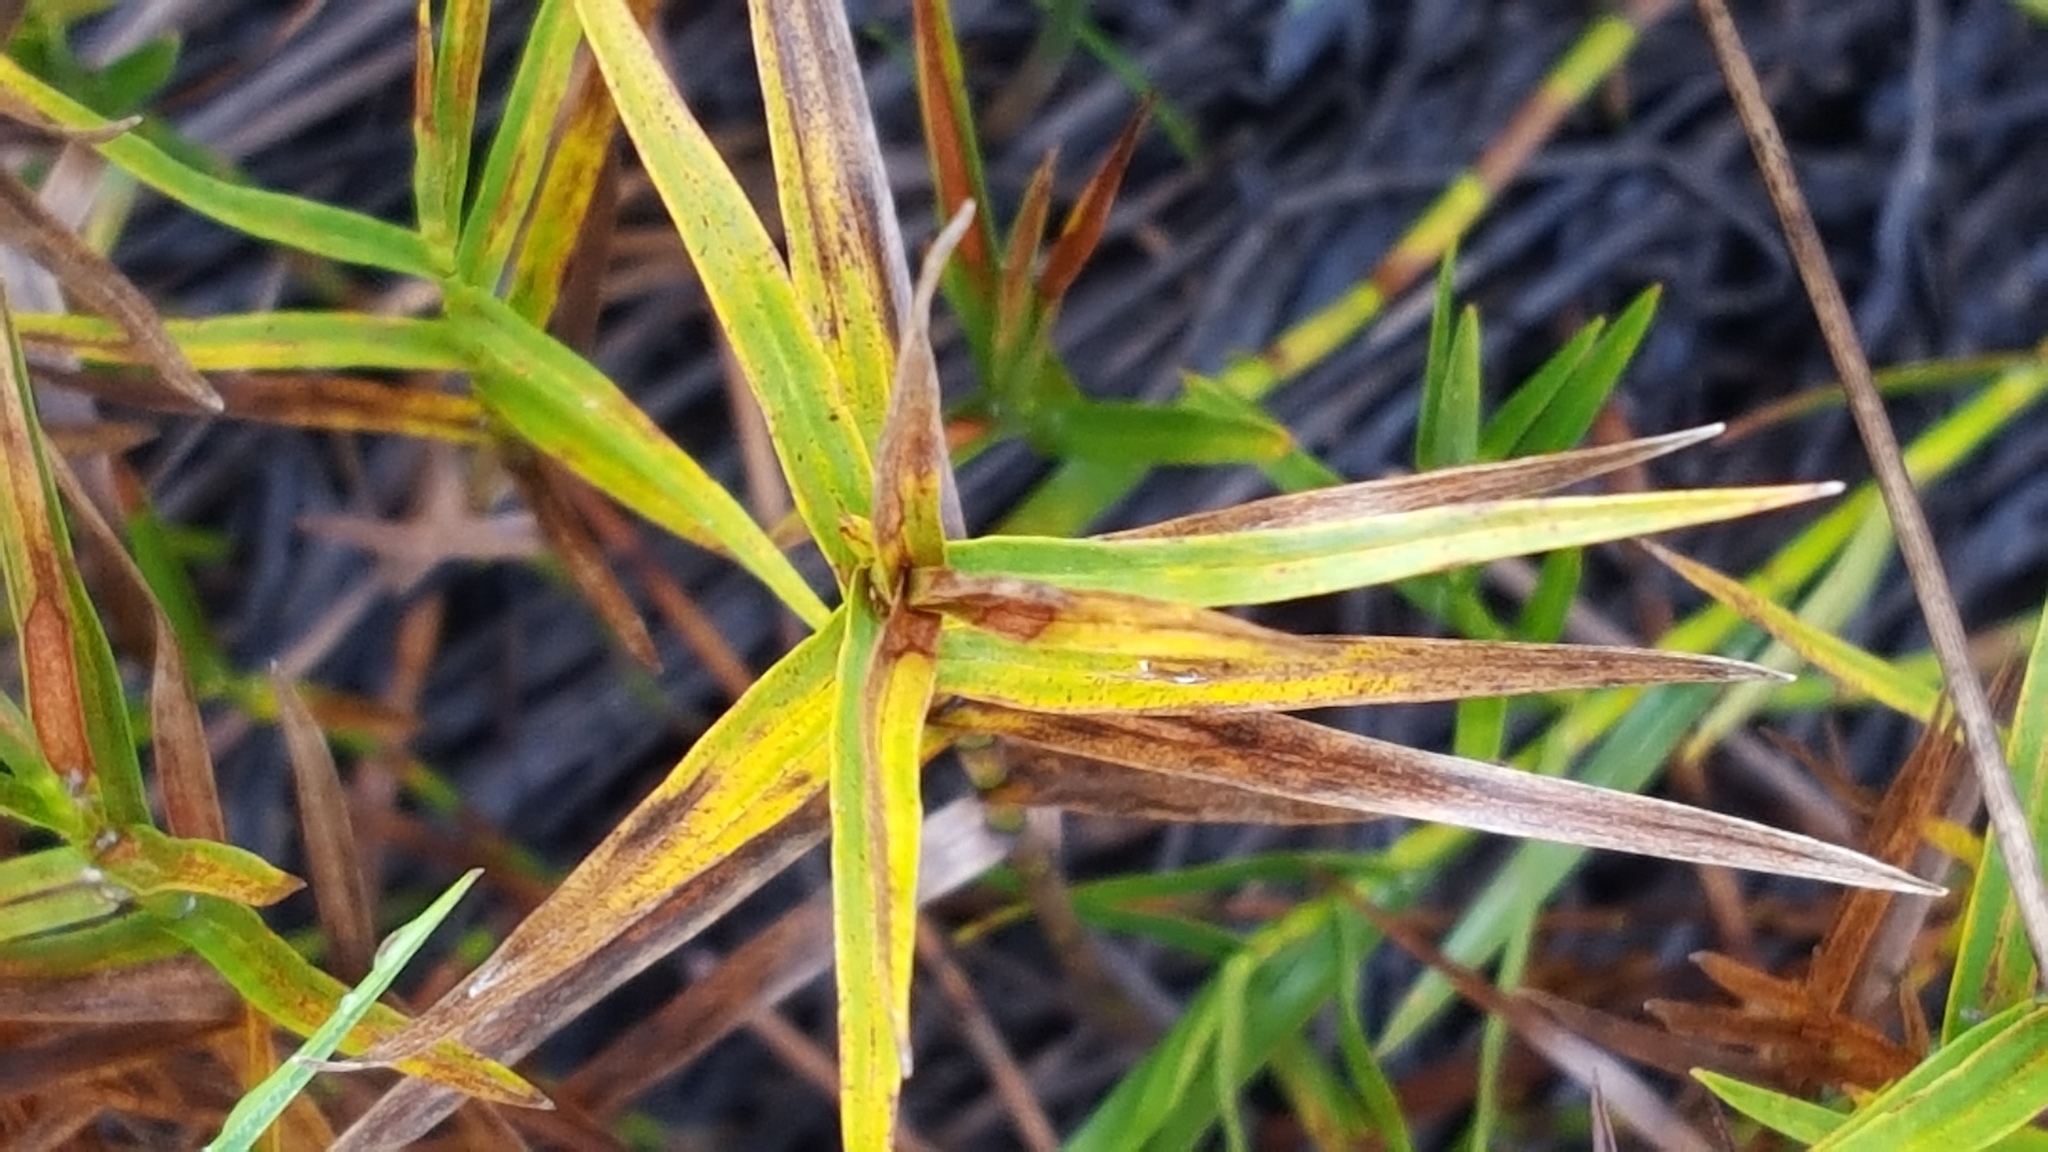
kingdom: Plantae
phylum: Tracheophyta
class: Liliopsida
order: Poales
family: Cyperaceae
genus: Dulichium
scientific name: Dulichium arundinaceum
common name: Three-way sedge
